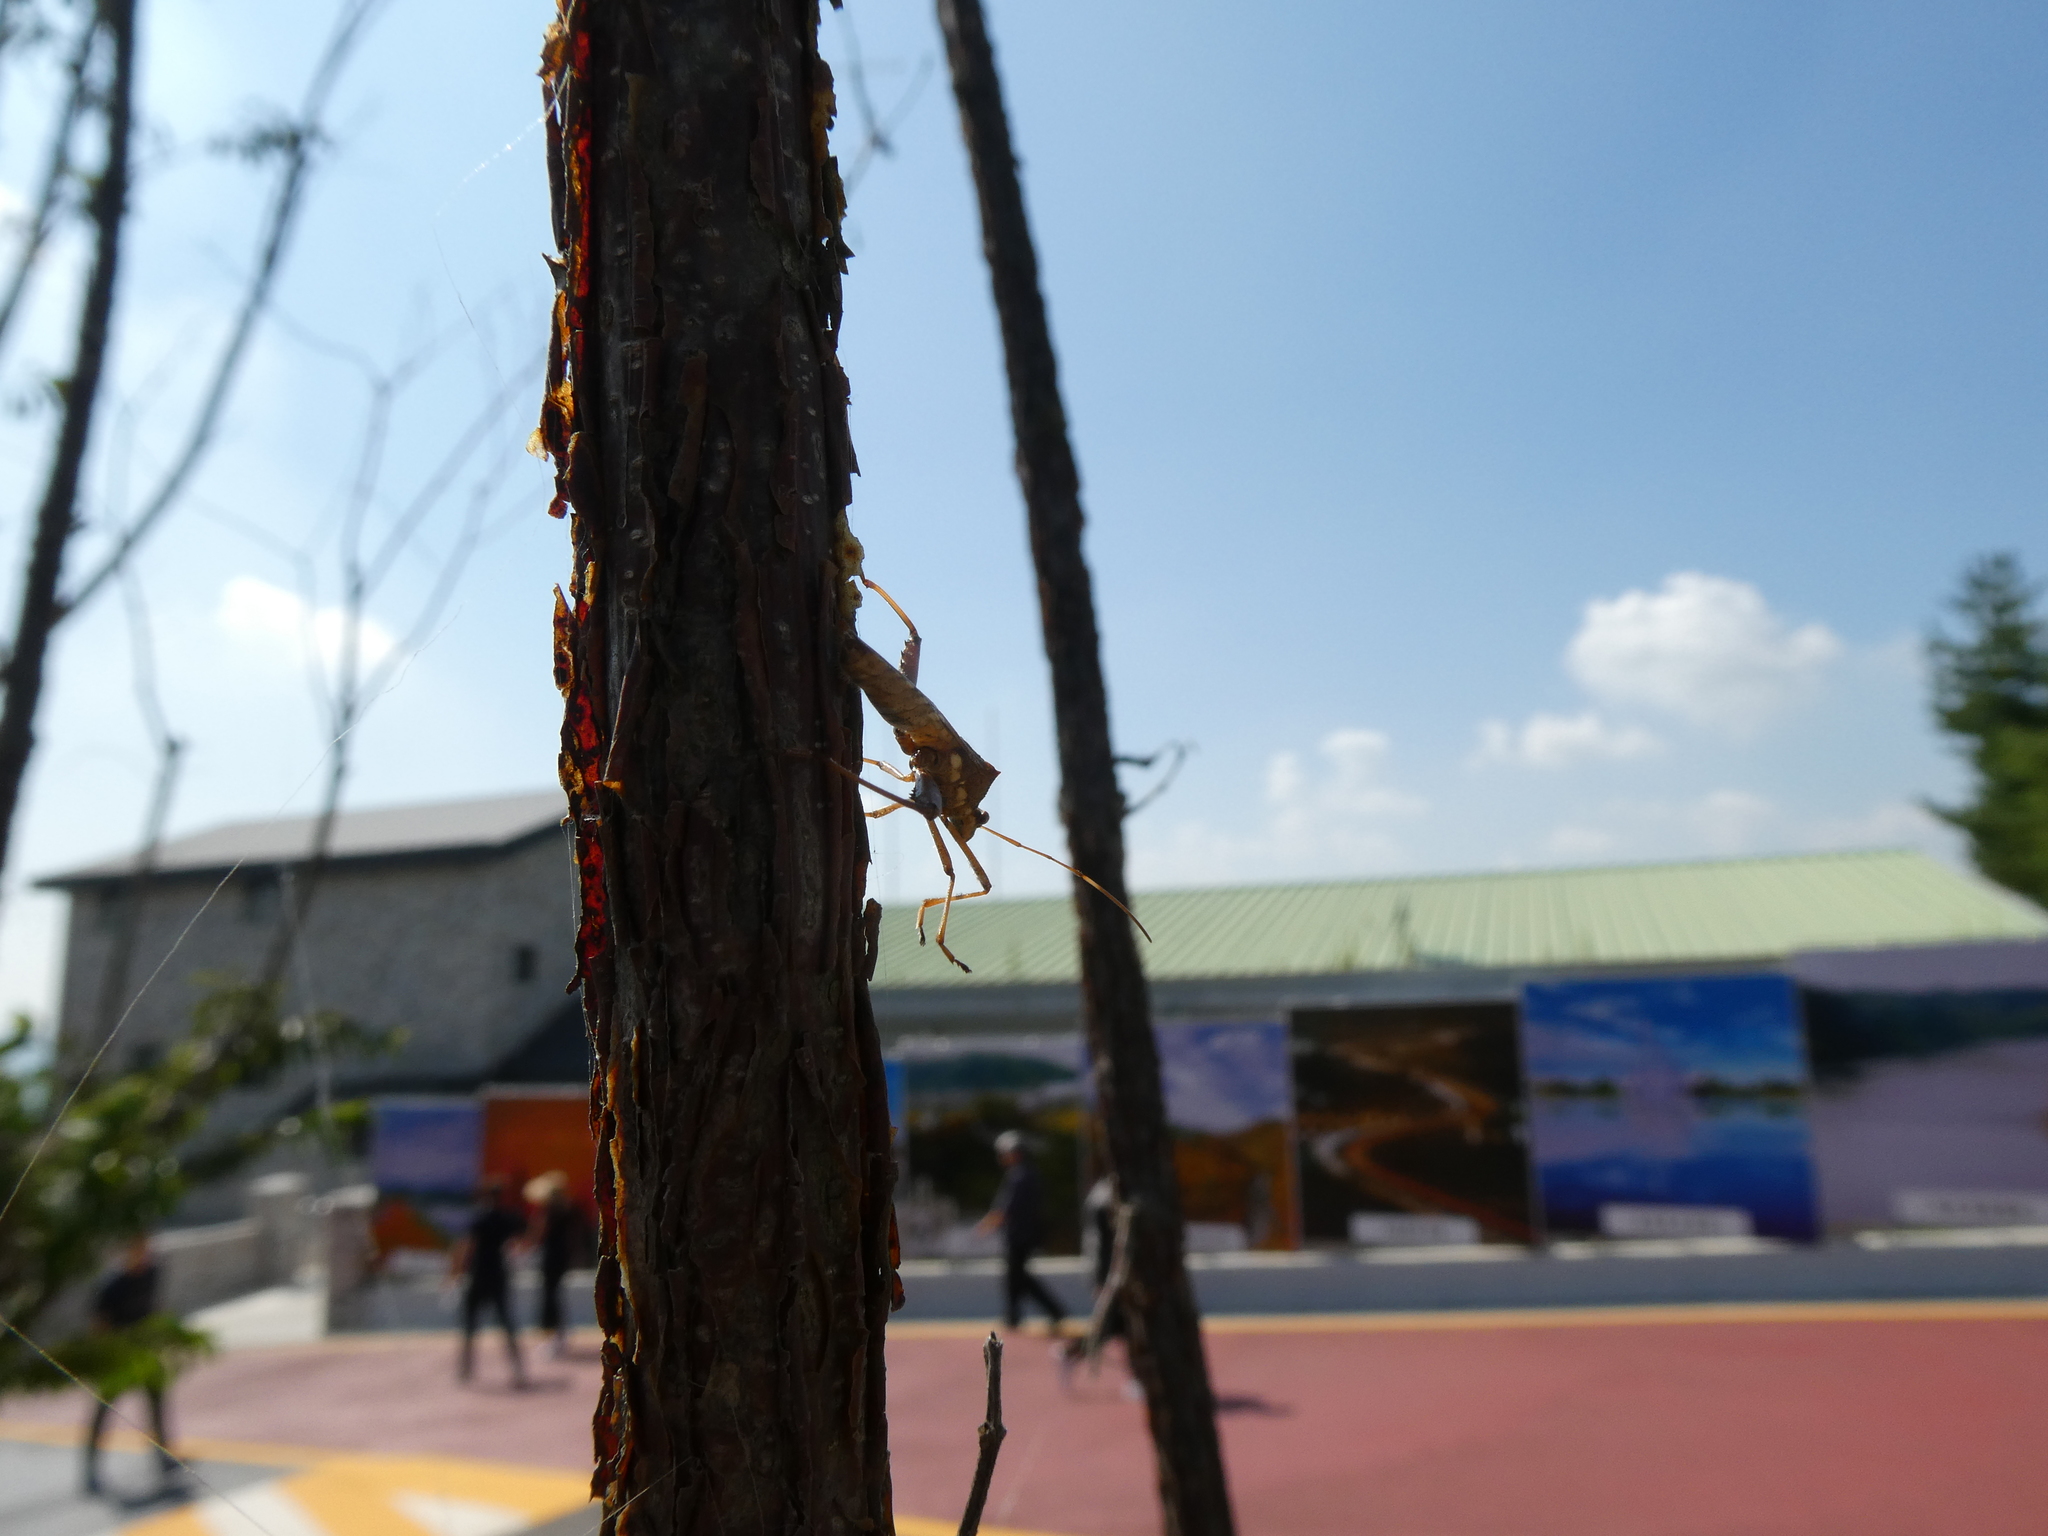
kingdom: Animalia
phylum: Arthropoda
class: Insecta
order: Hemiptera
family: Alydidae
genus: Riptortus
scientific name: Riptortus pedestris
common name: Bean bug
